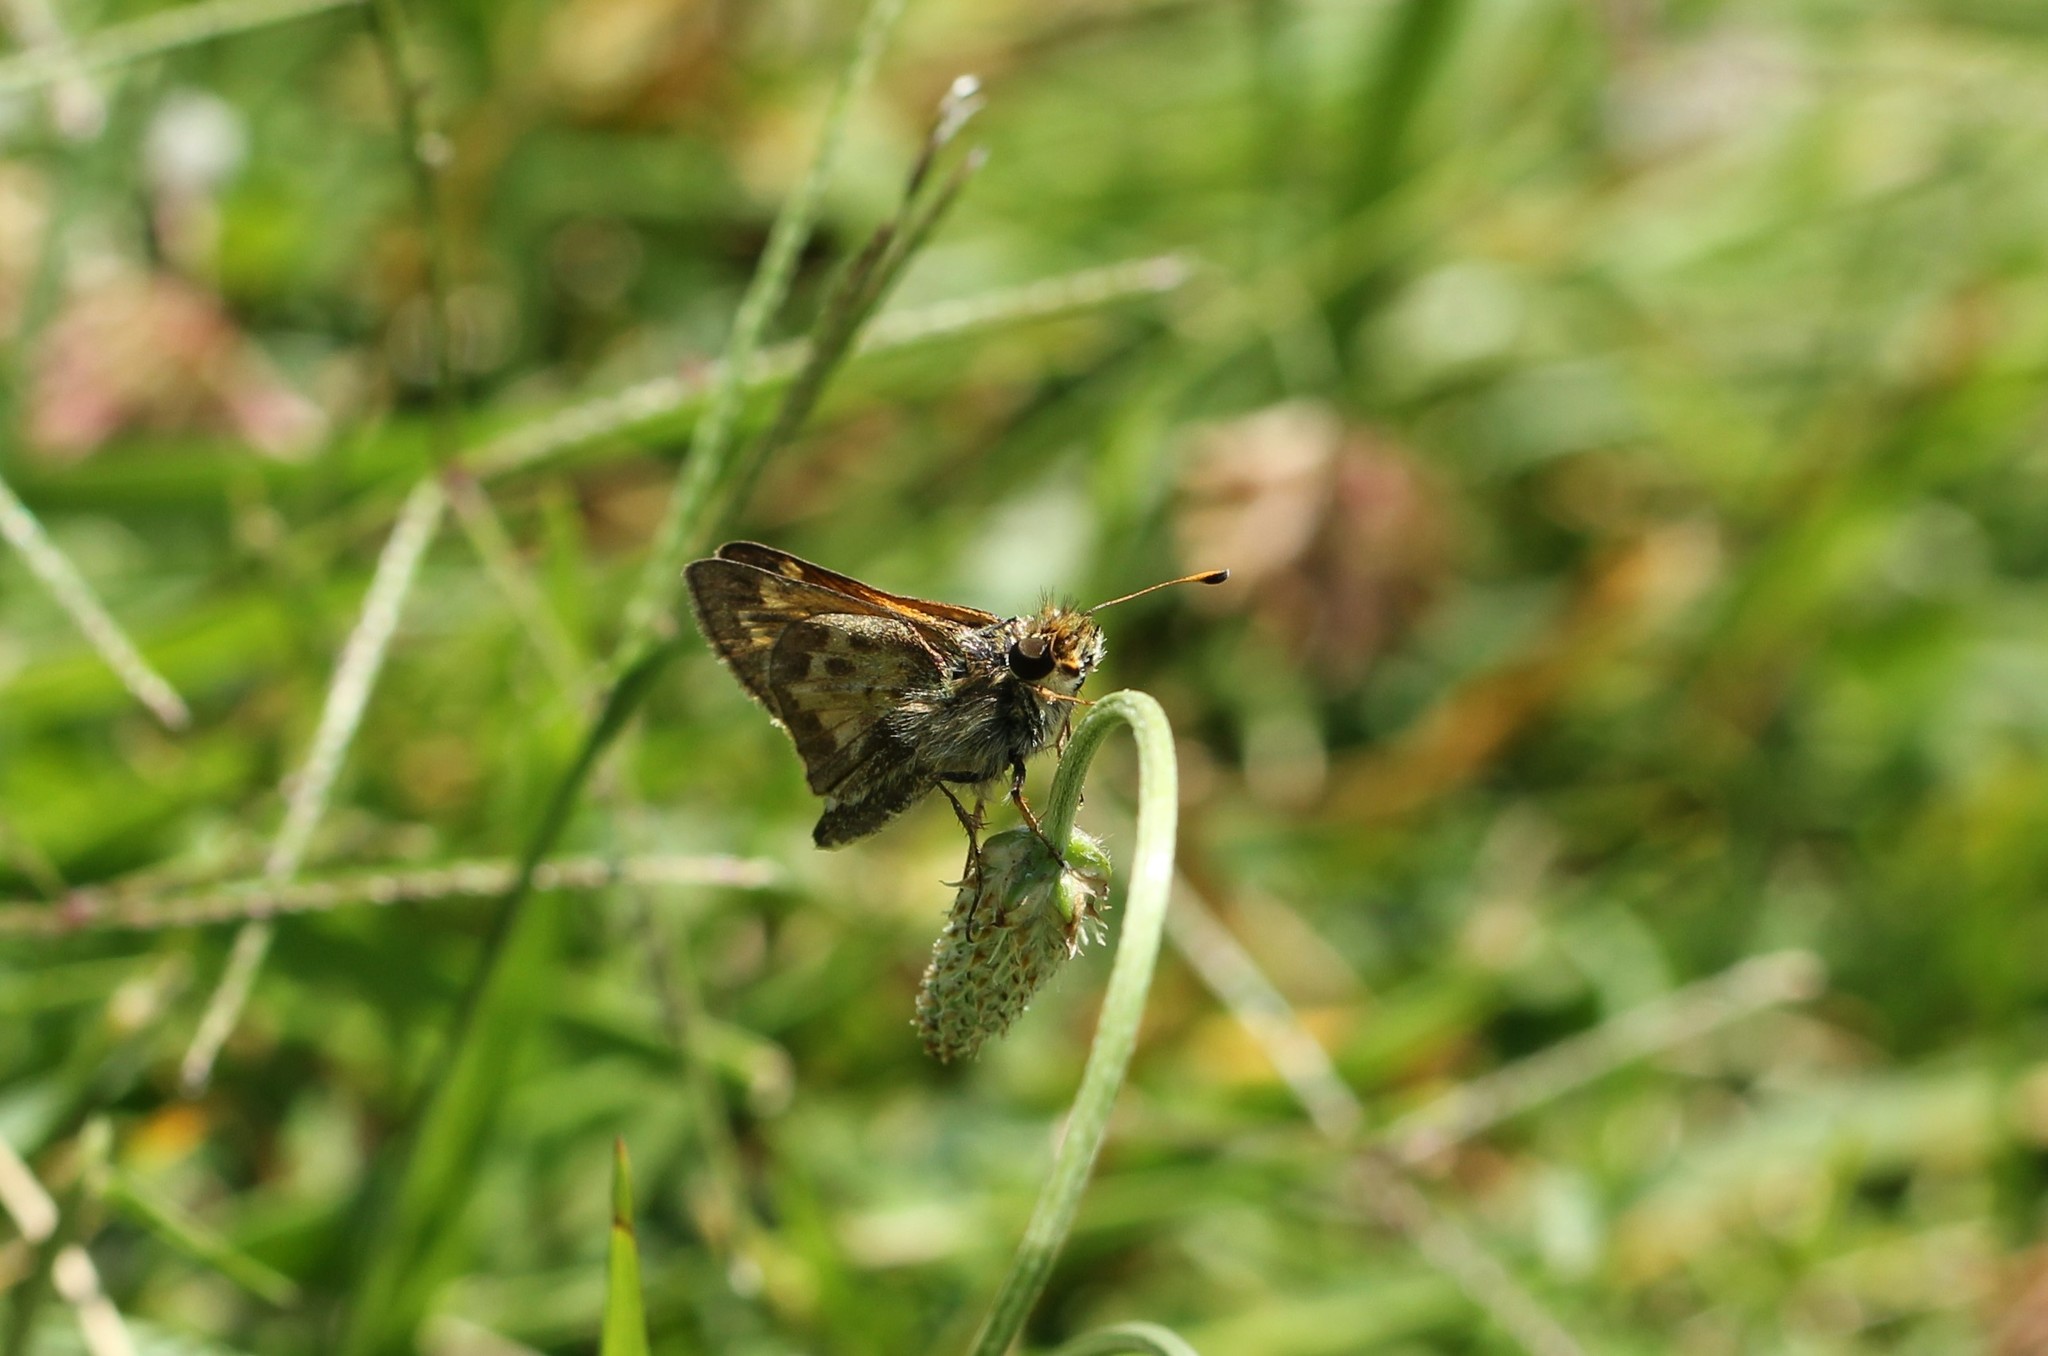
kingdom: Animalia
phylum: Arthropoda
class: Insecta
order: Lepidoptera
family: Hesperiidae
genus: Atalopedes
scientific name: Atalopedes
